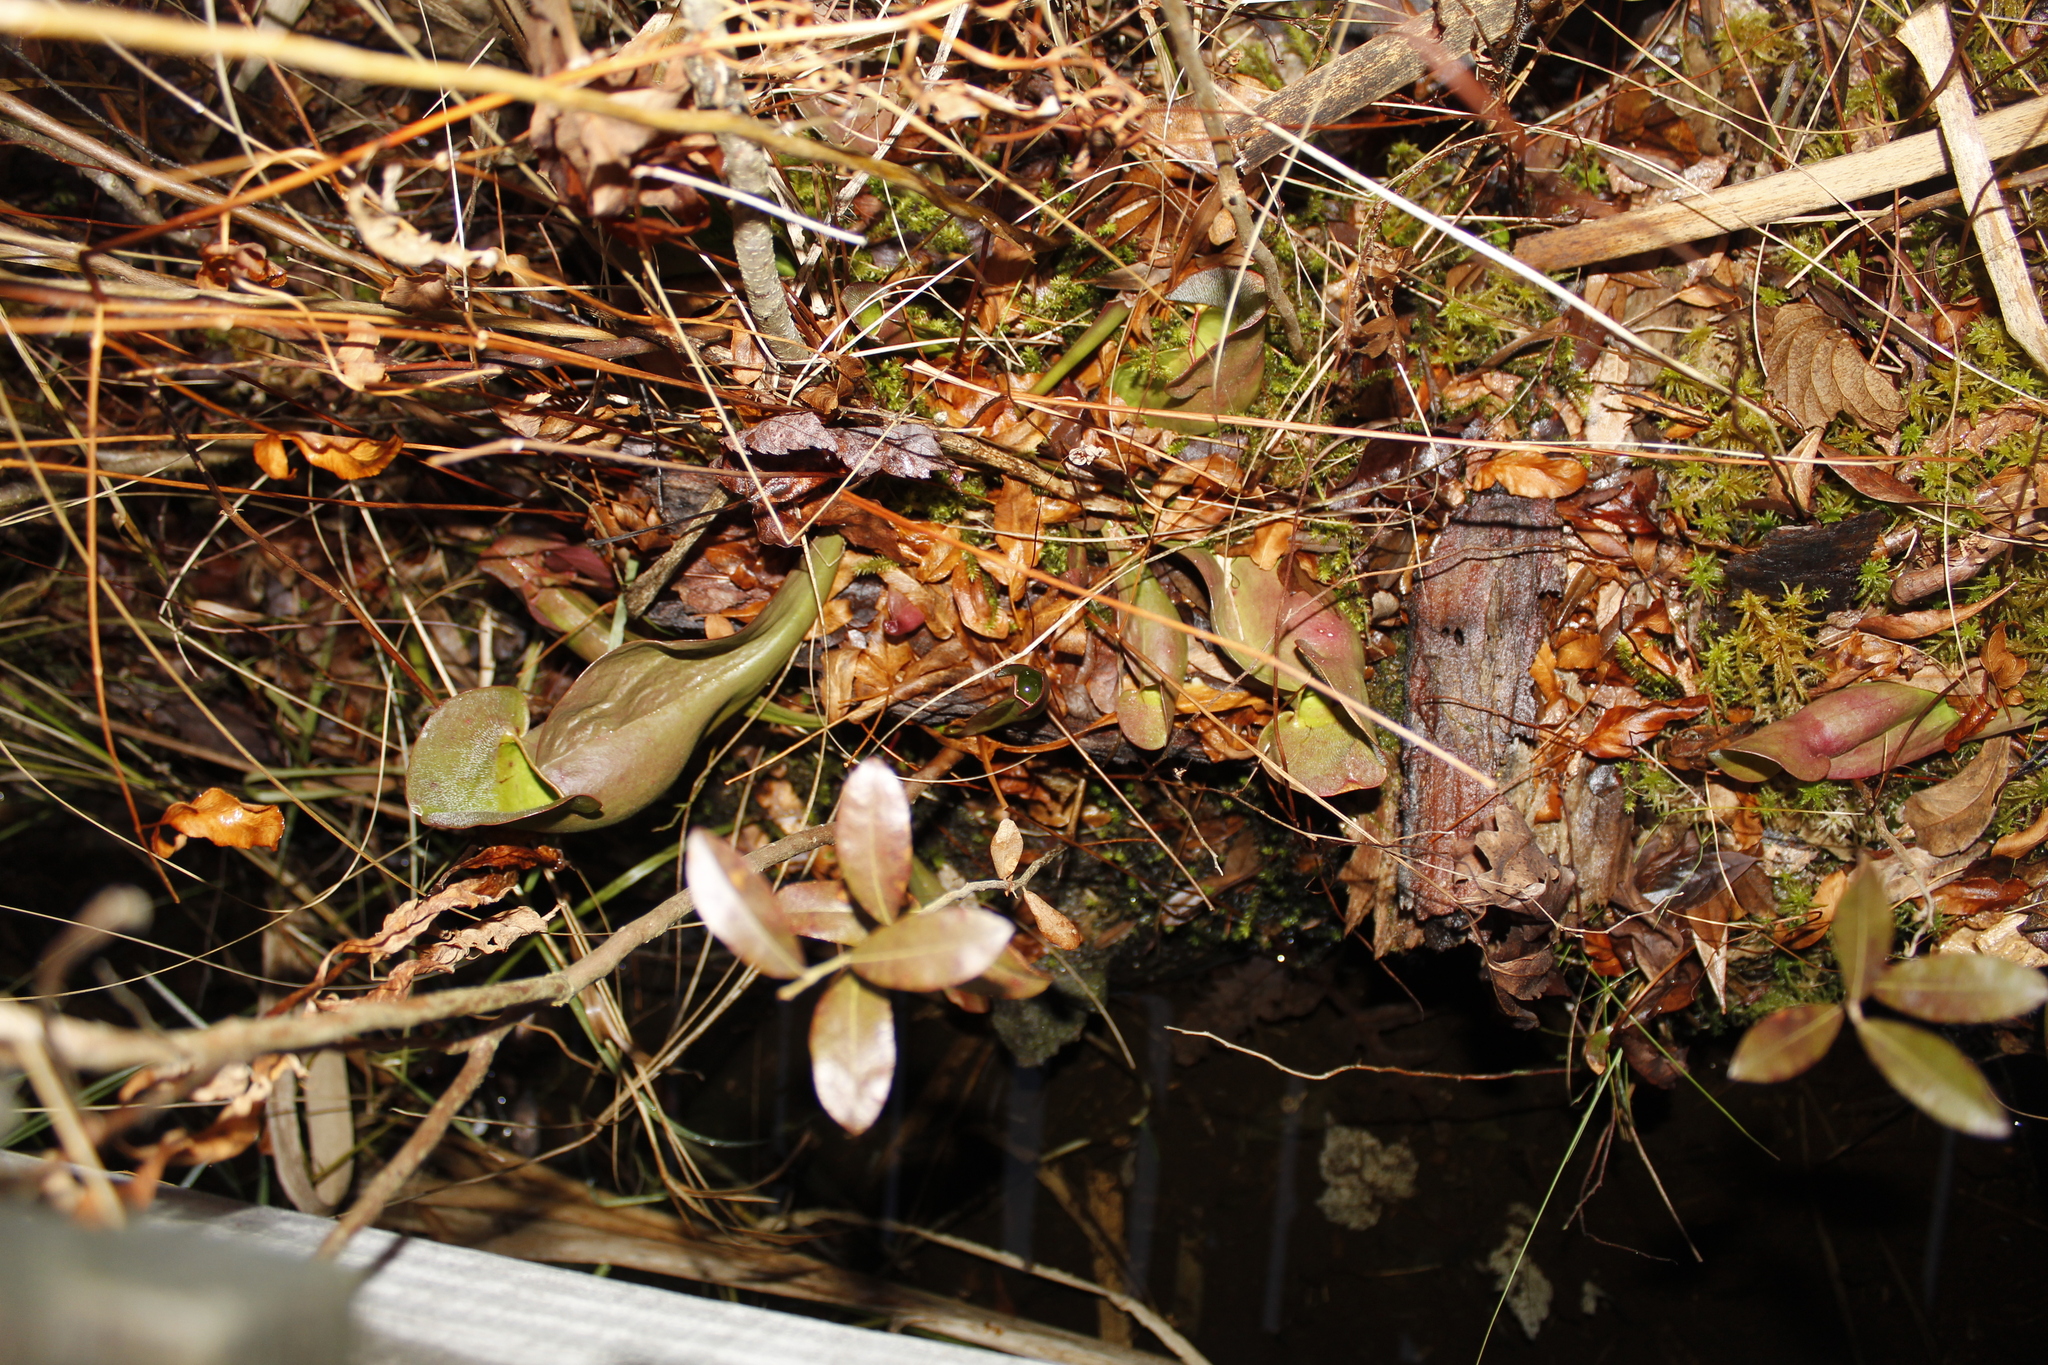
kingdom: Plantae
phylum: Tracheophyta
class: Magnoliopsida
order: Ericales
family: Sarraceniaceae
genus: Sarracenia
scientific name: Sarracenia purpurea
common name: Pitcherplant
